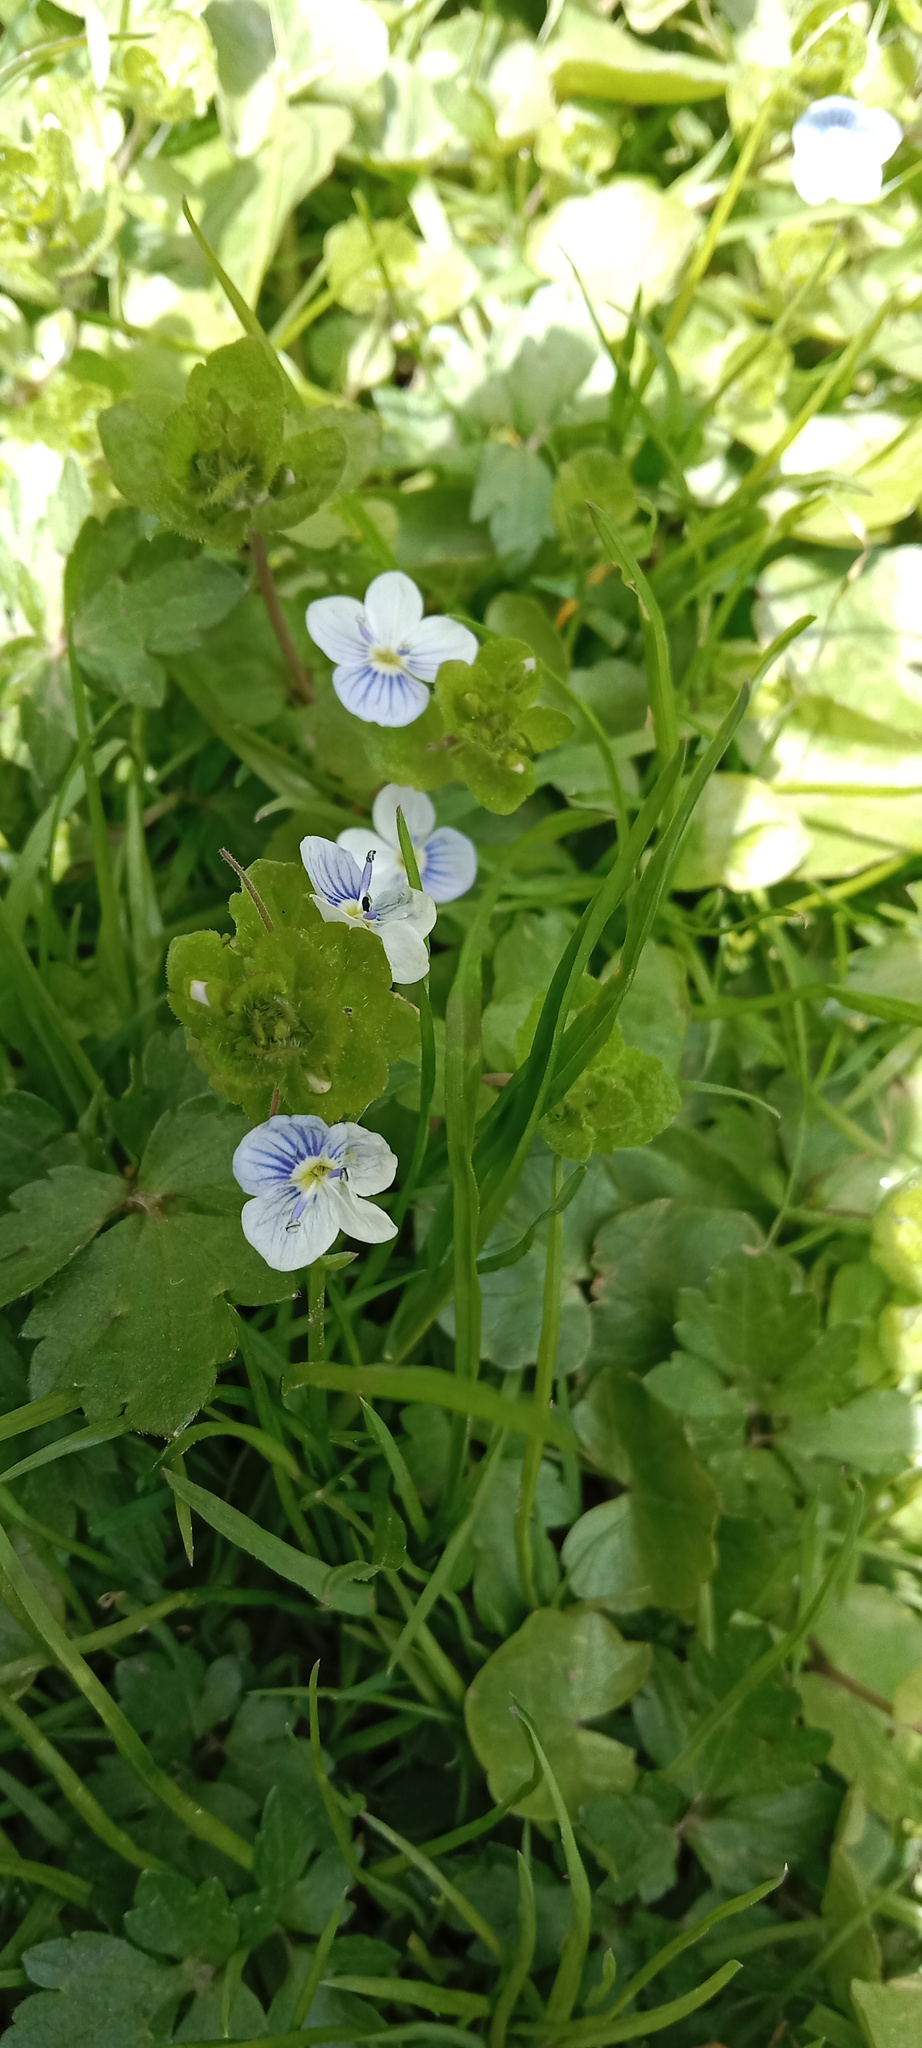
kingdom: Plantae
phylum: Tracheophyta
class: Magnoliopsida
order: Lamiales
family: Plantaginaceae
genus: Veronica
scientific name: Veronica filiformis
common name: Slender speedwell
